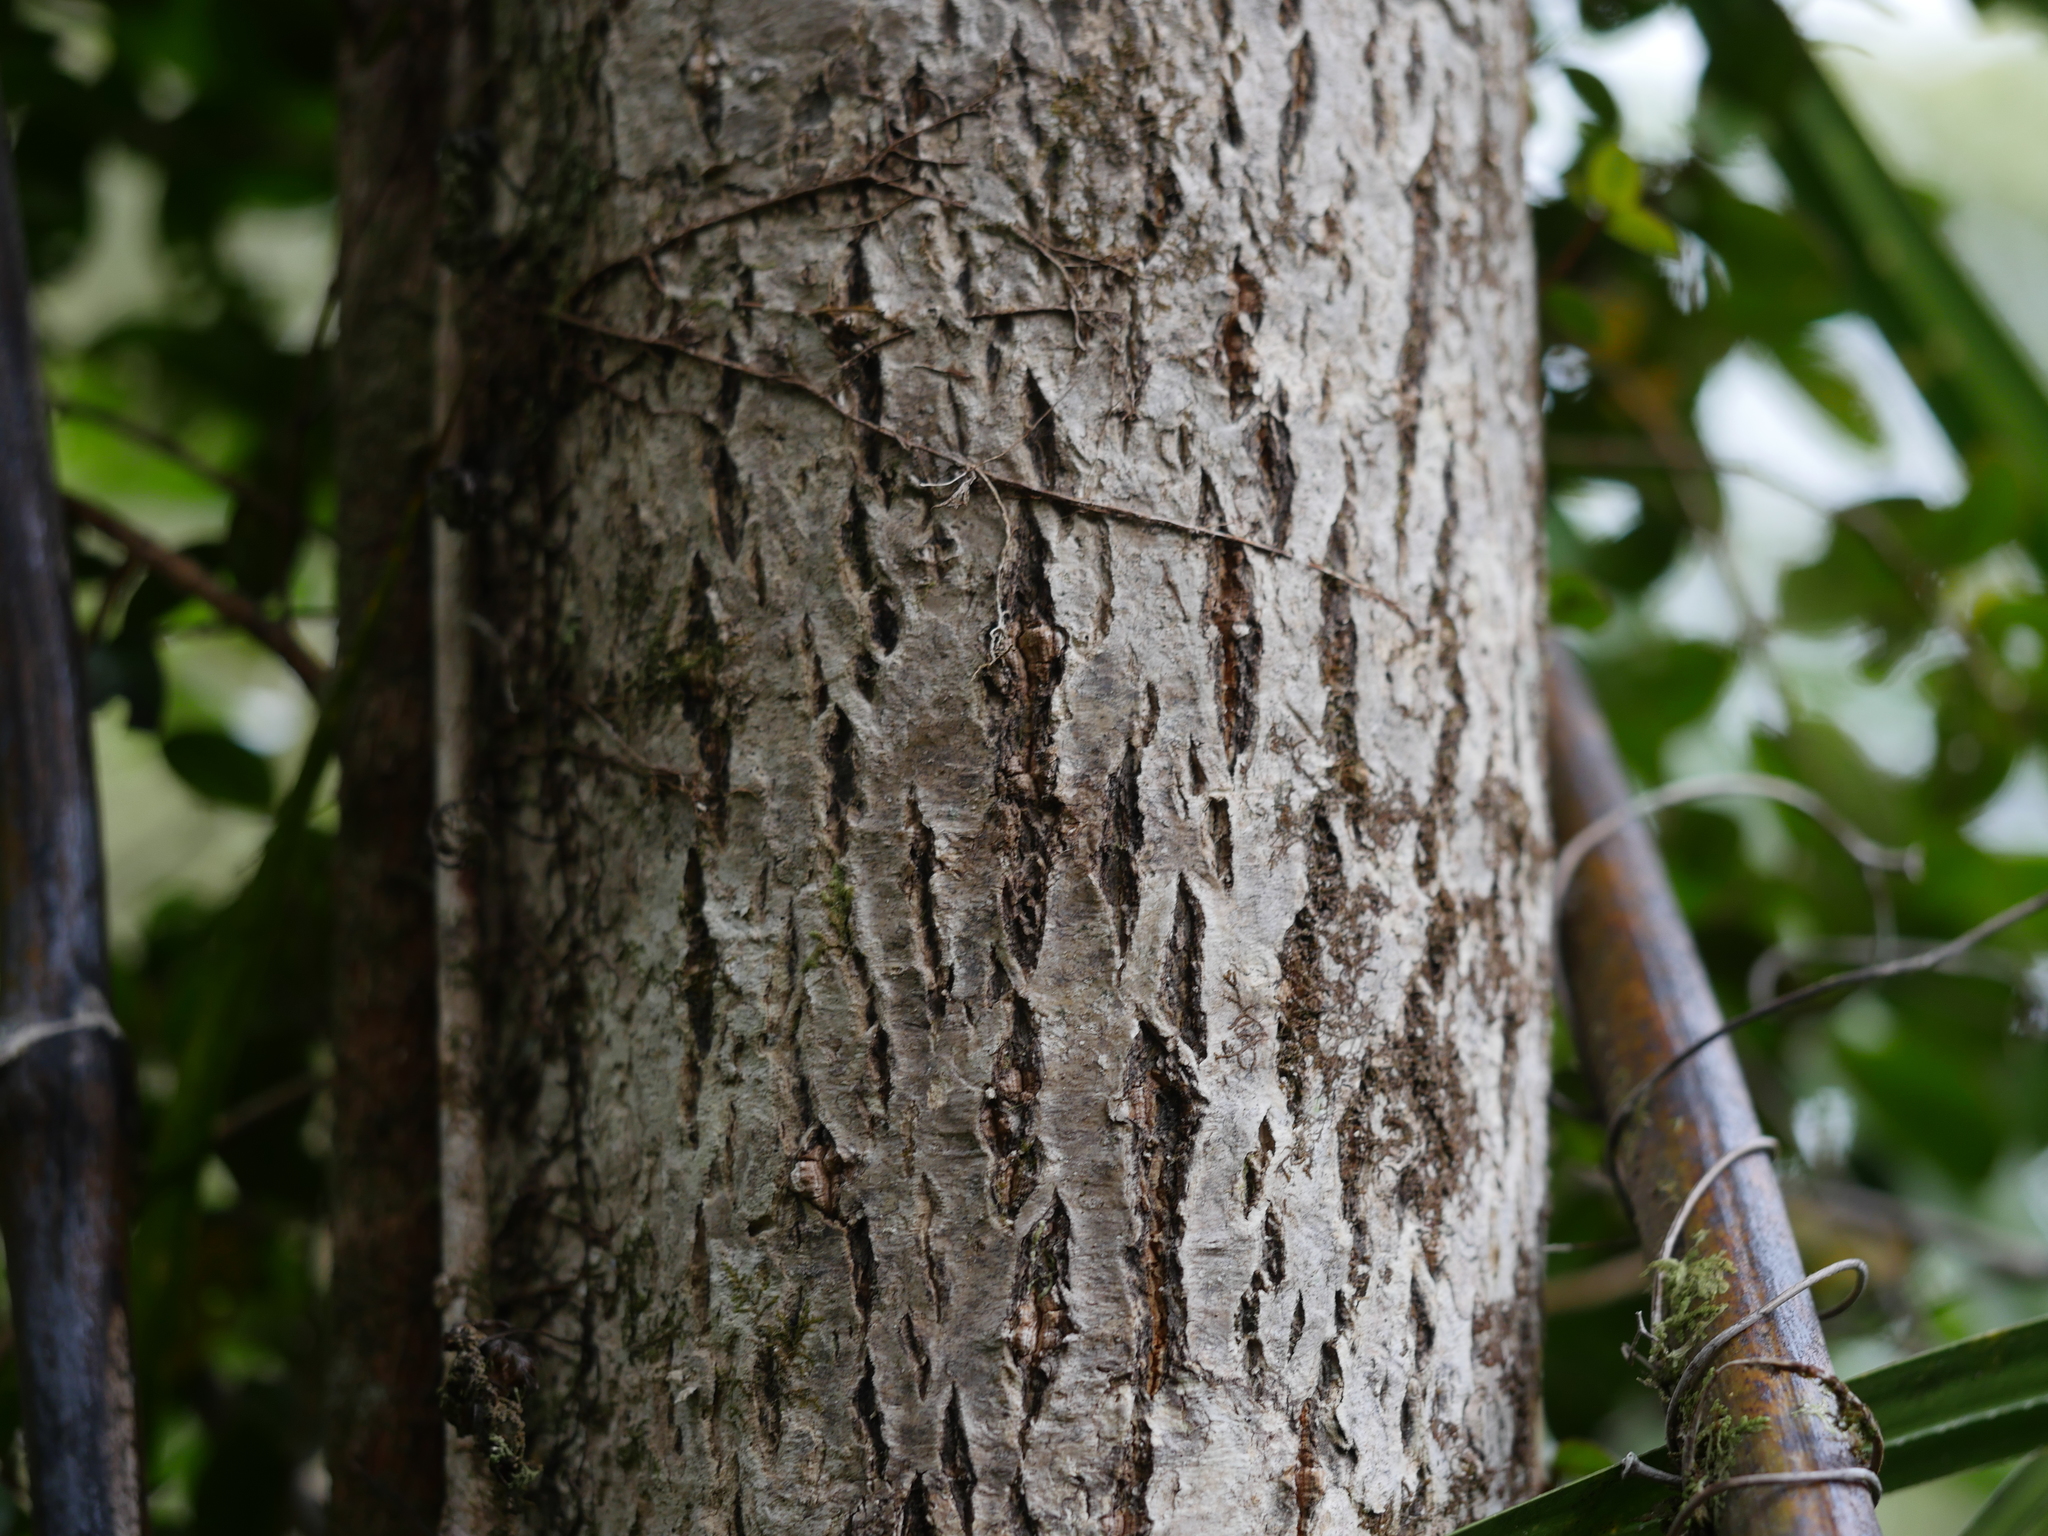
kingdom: Plantae
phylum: Tracheophyta
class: Magnoliopsida
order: Lamiales
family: Oleaceae
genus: Nestegis
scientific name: Nestegis montana
